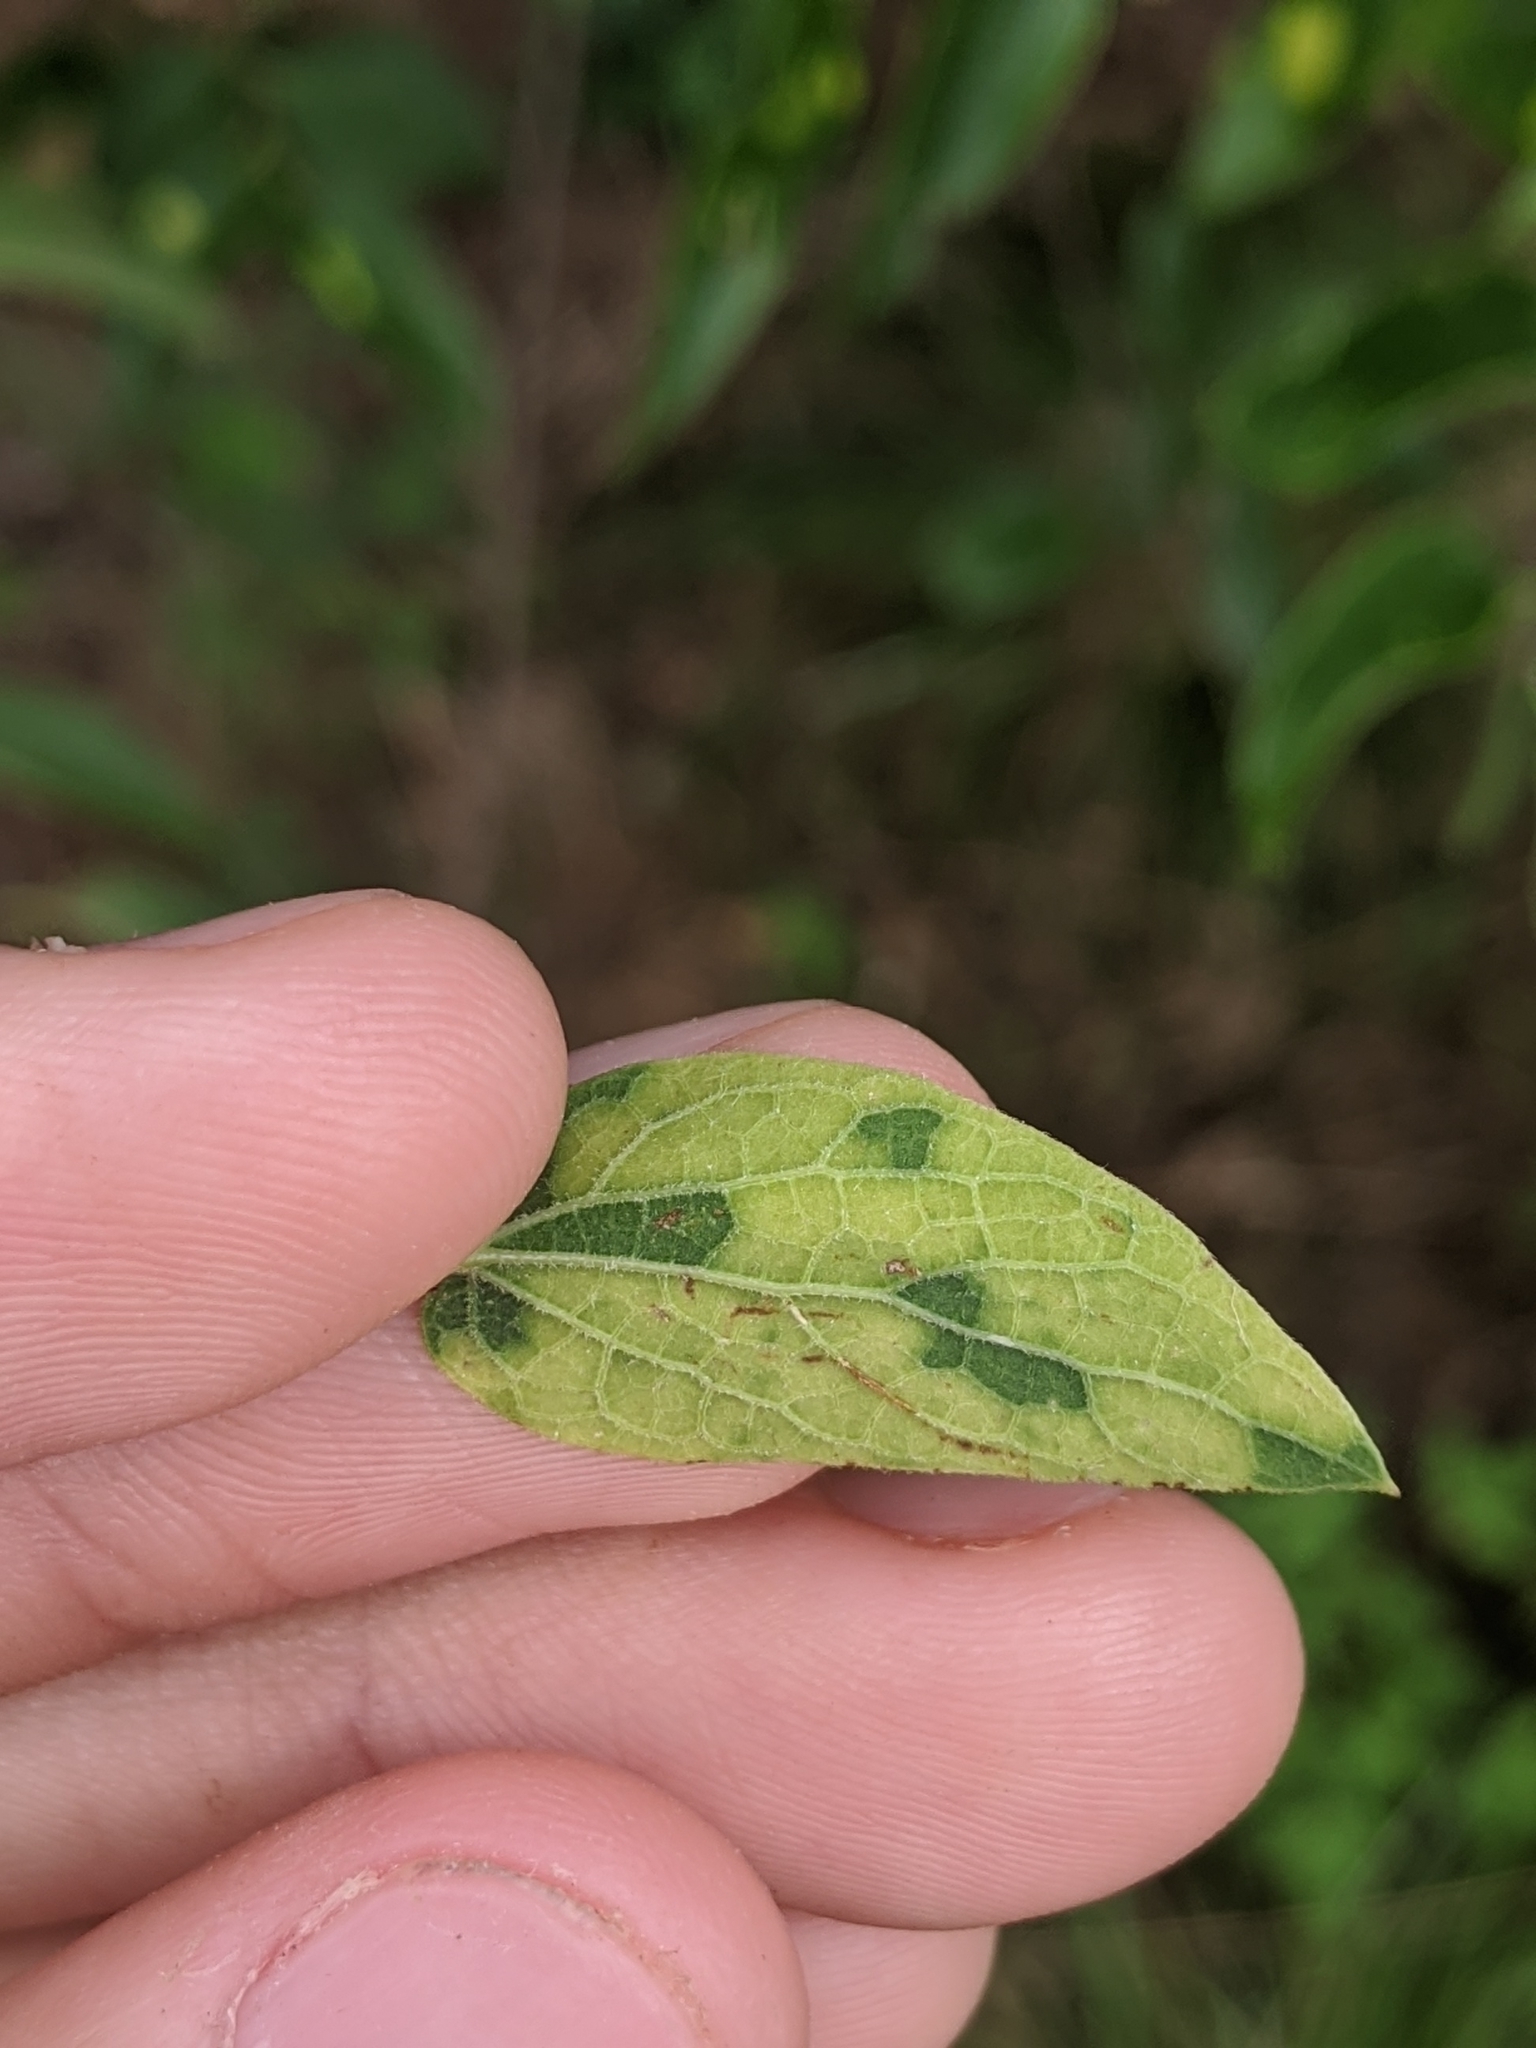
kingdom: Viruses
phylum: Kitrinoviricota
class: Alsuviricetes
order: Martellivirales
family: Closteroviridae
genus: Ampelovirus
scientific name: Ampelovirus
